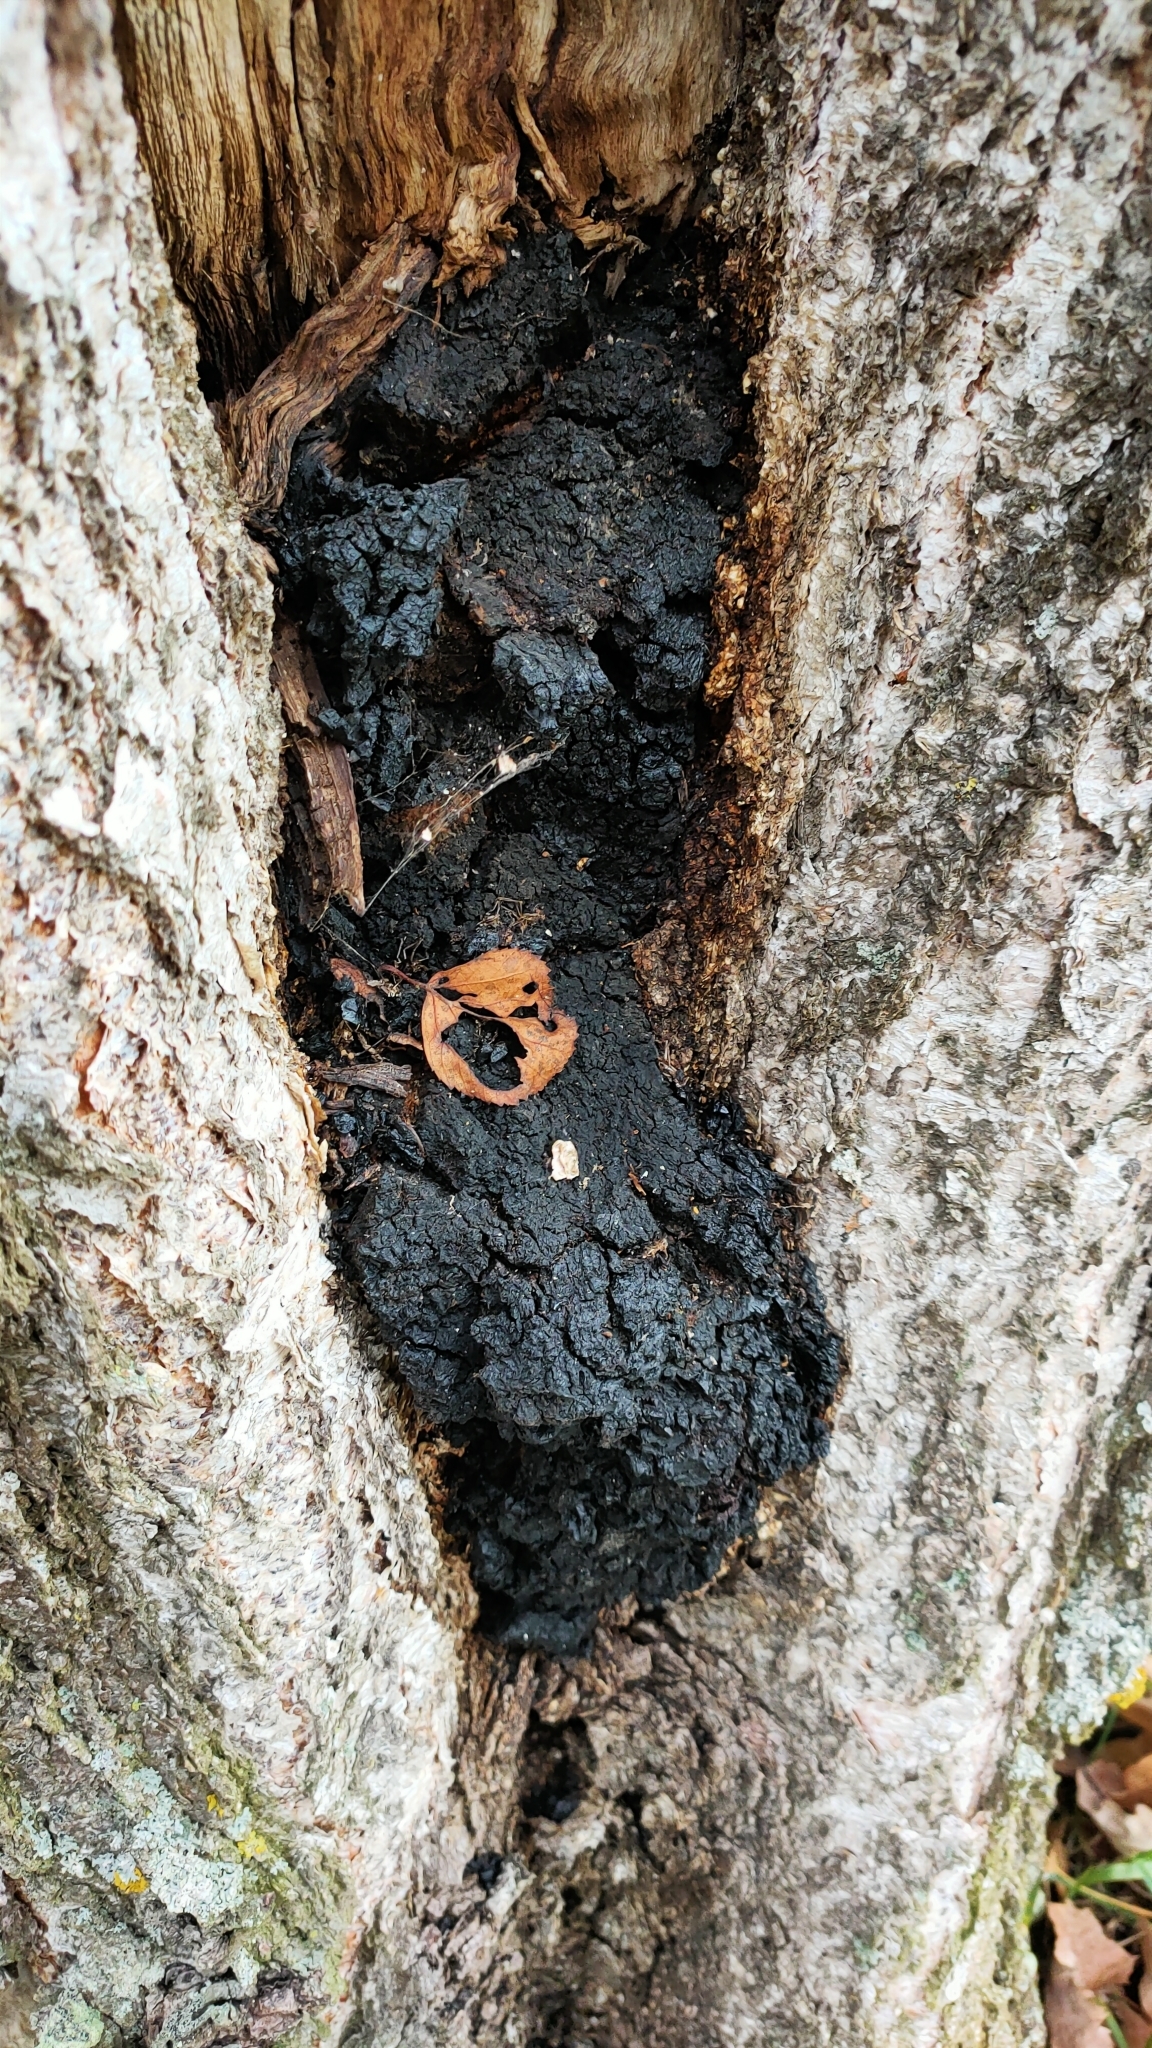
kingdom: Fungi
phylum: Basidiomycota
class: Agaricomycetes
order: Hymenochaetales
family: Hymenochaetaceae
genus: Inonotus
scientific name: Inonotus obliquus
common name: Chaga
